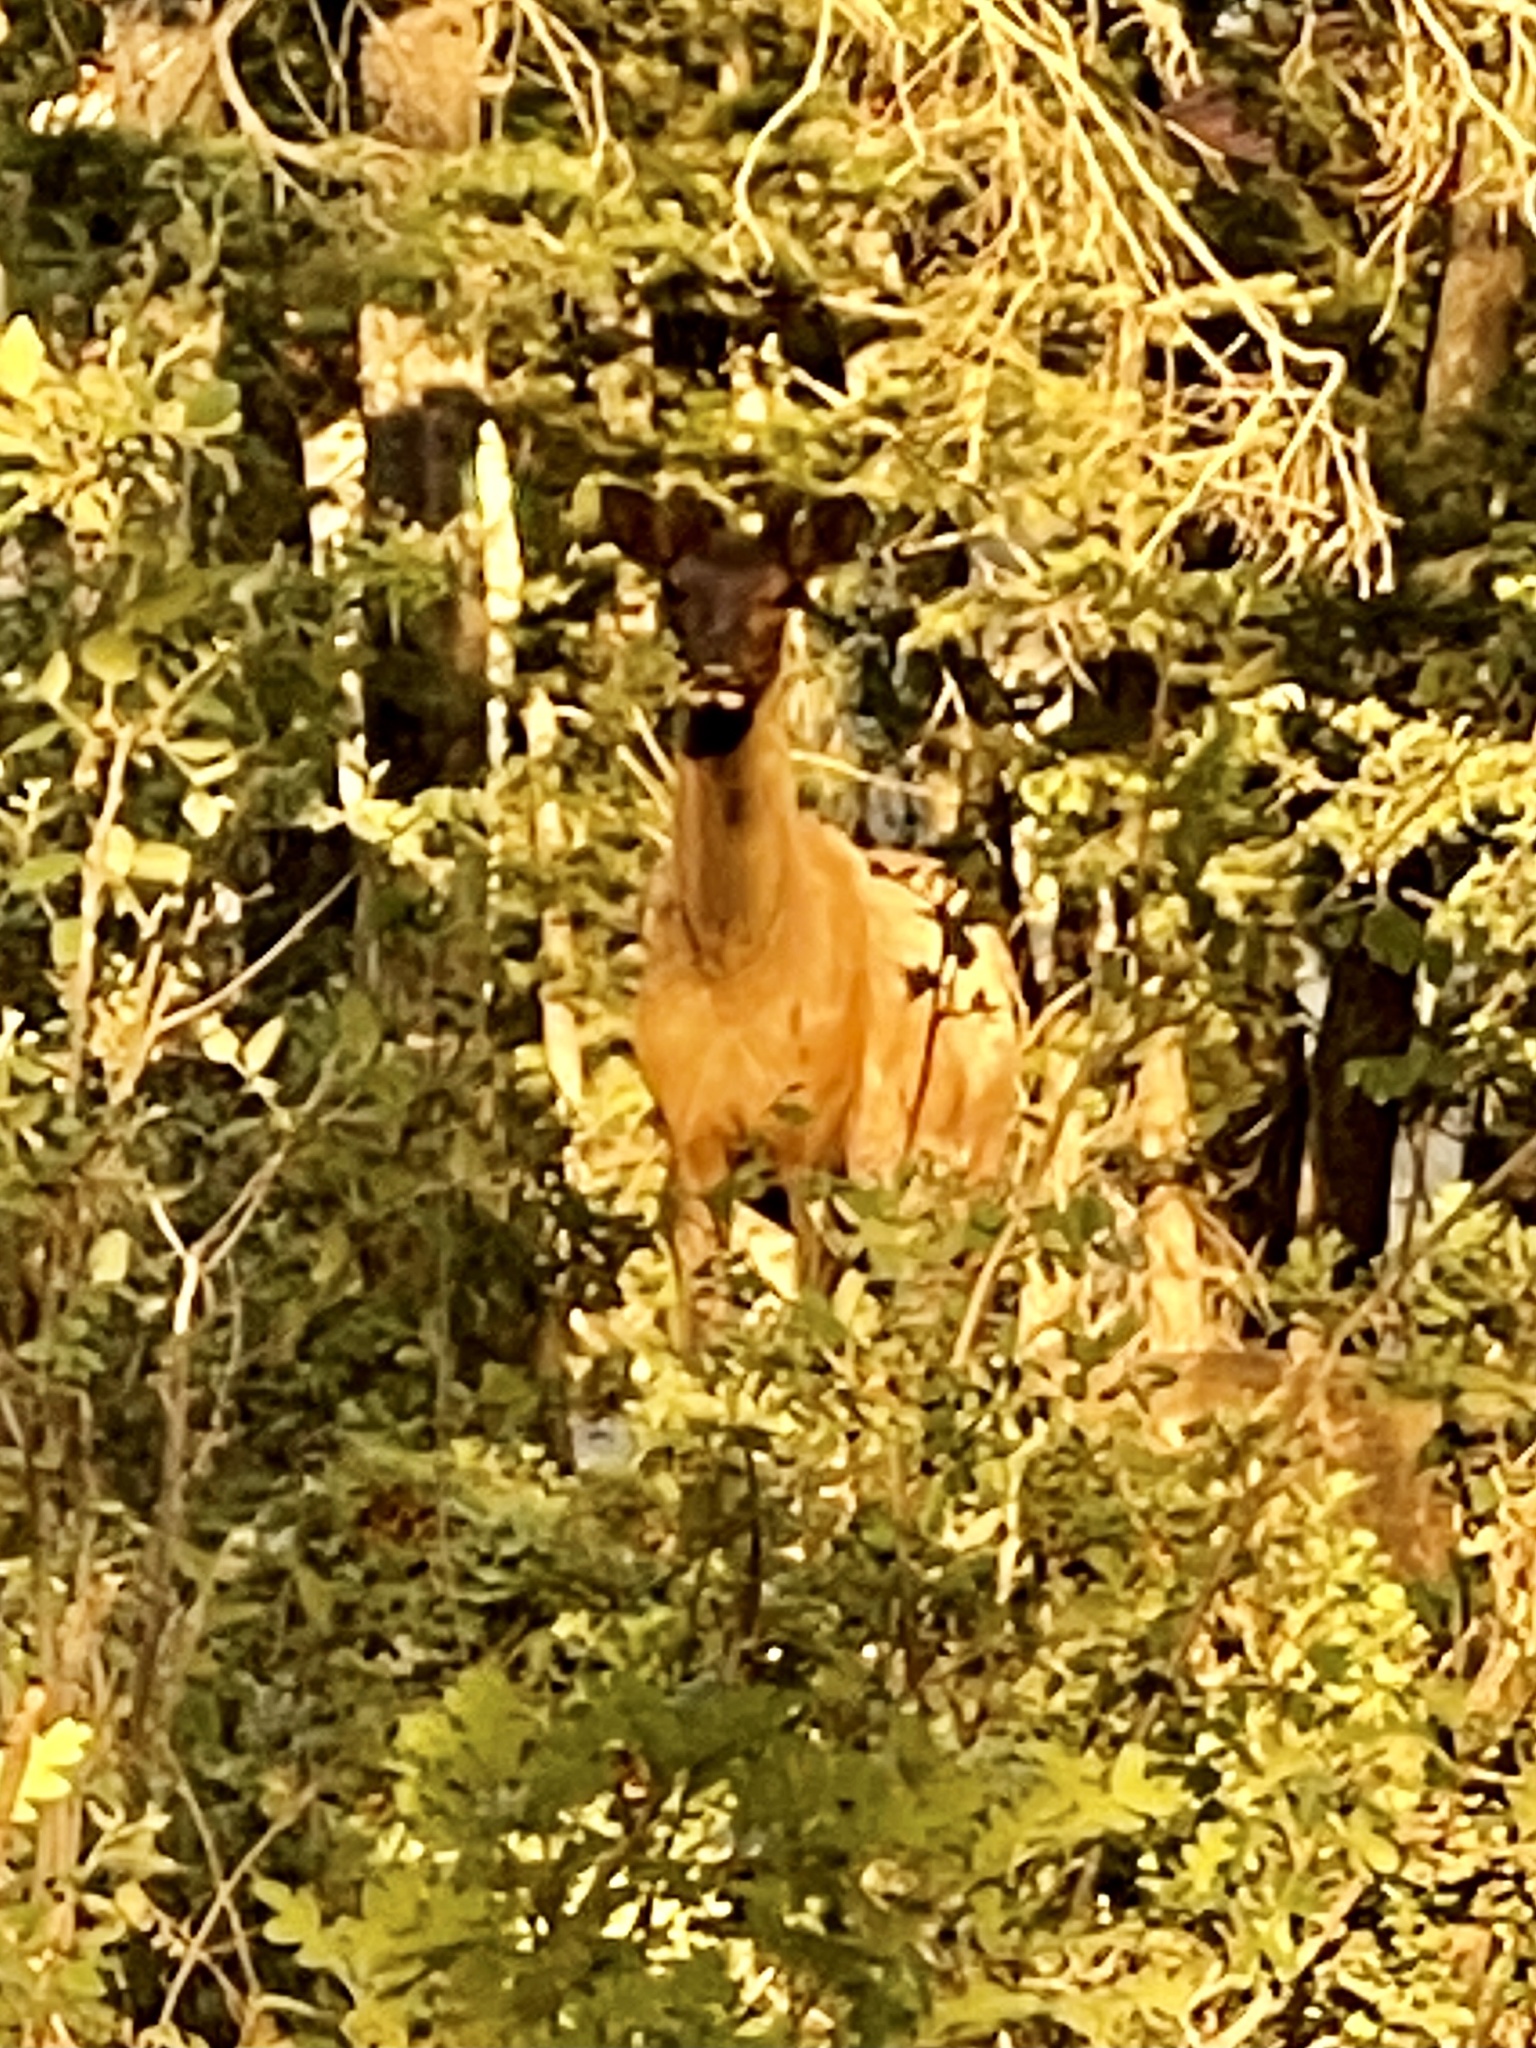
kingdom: Animalia
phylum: Chordata
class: Mammalia
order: Artiodactyla
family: Cervidae
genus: Cervus
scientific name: Cervus elaphus
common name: Red deer
